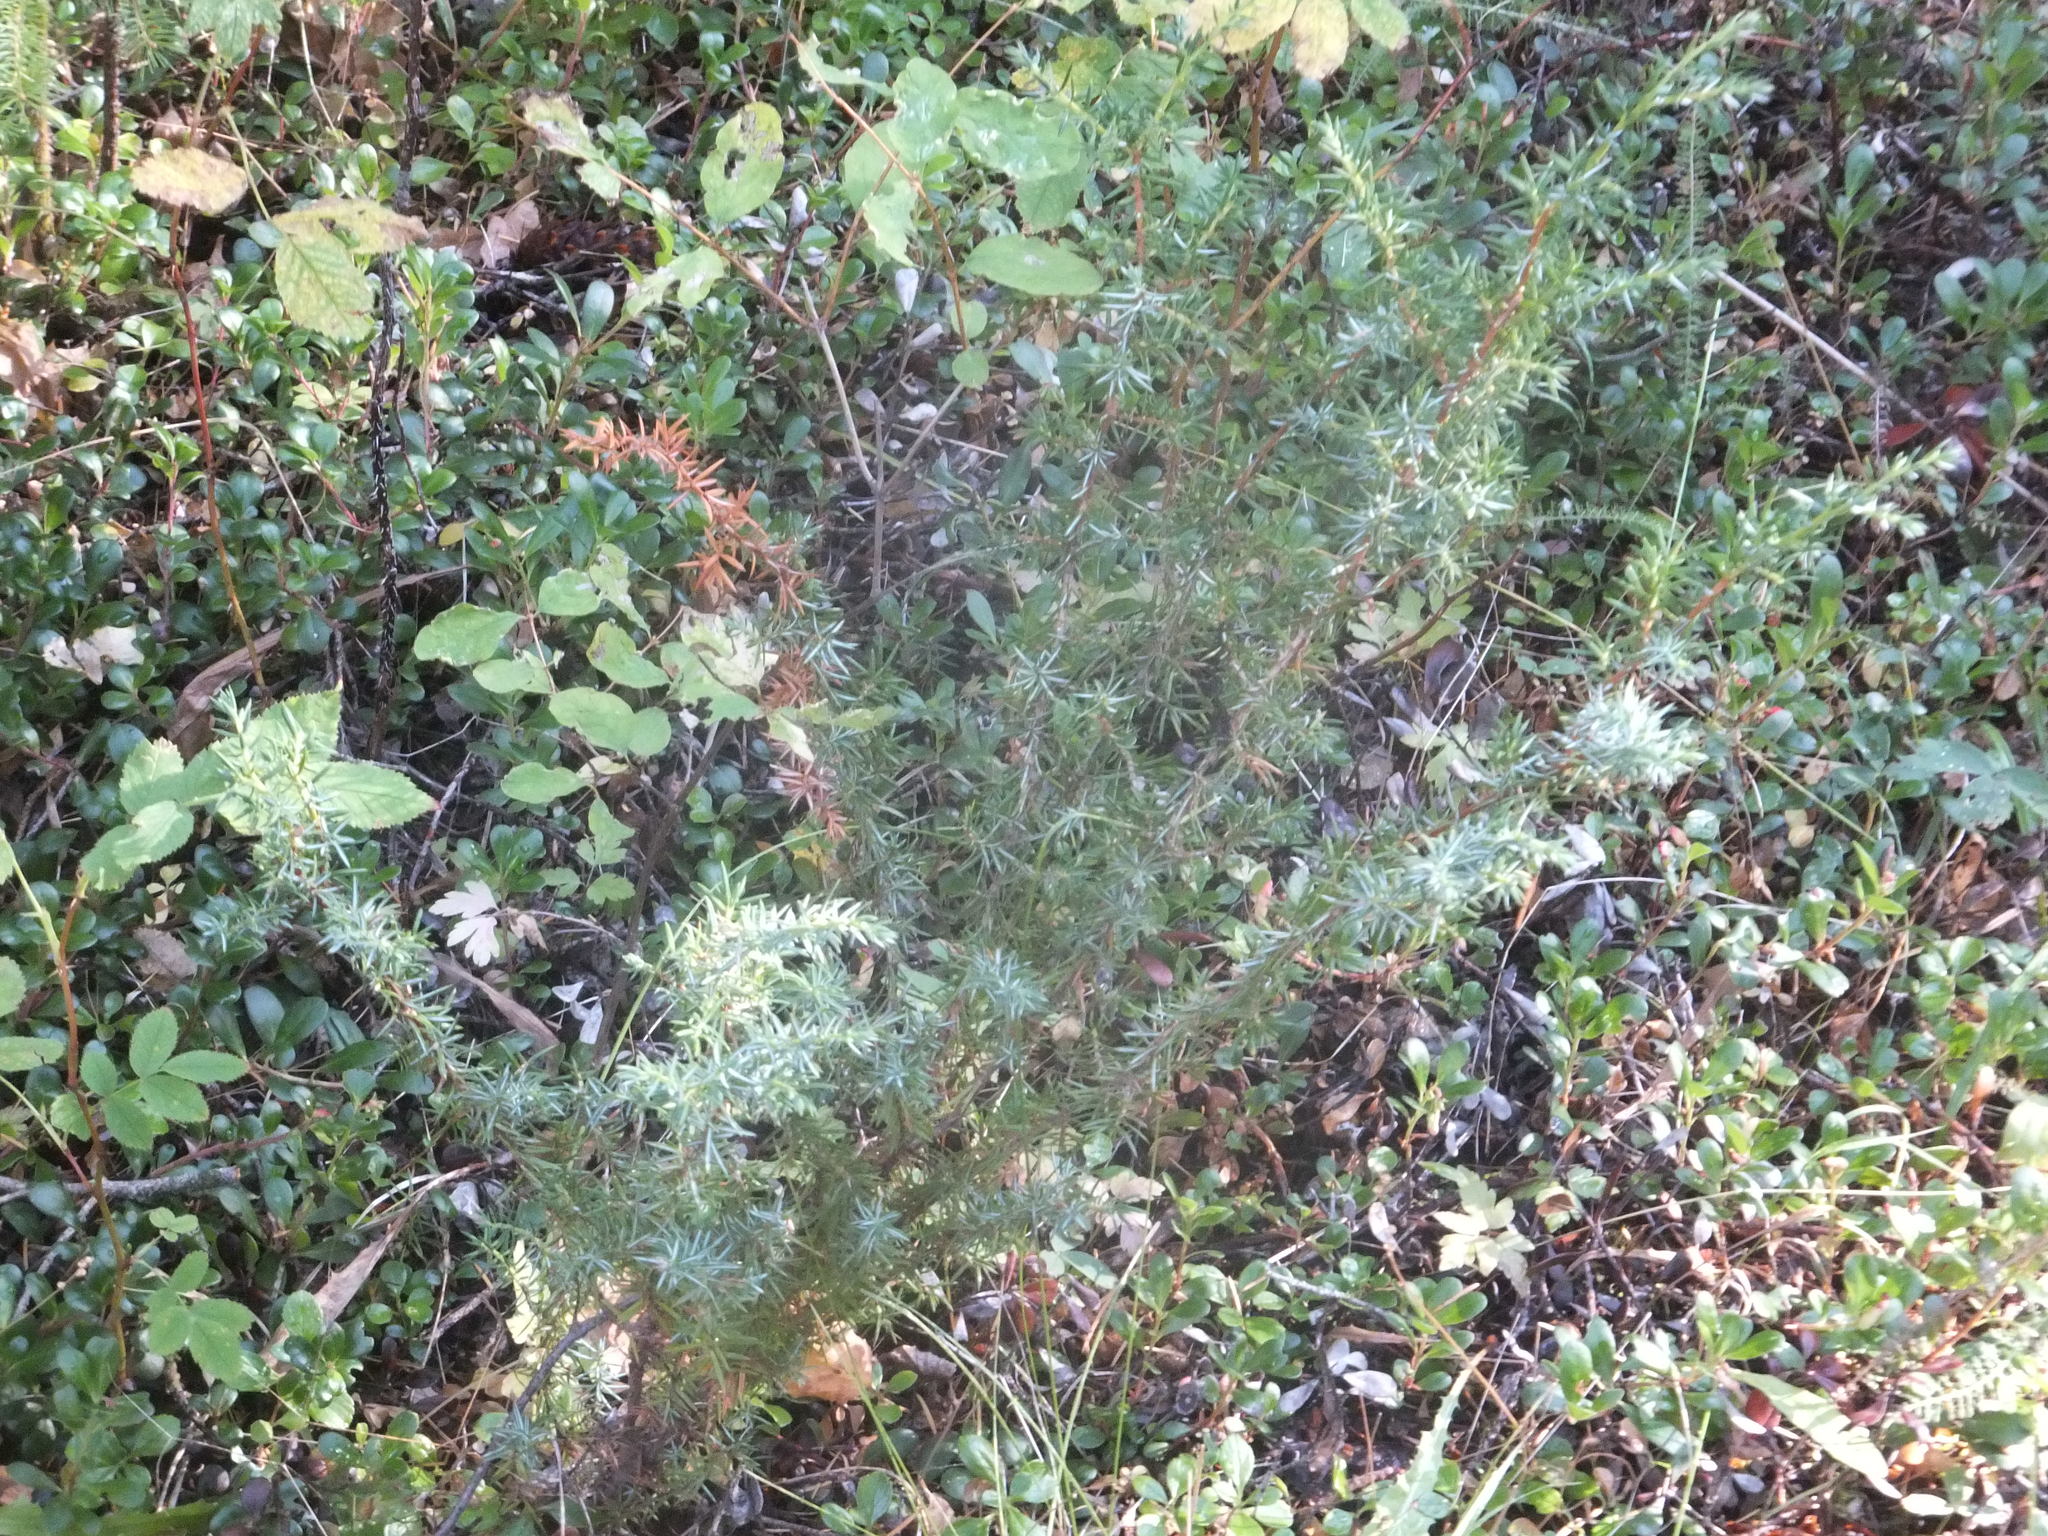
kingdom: Plantae
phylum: Tracheophyta
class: Pinopsida
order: Pinales
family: Cupressaceae
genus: Juniperus
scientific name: Juniperus communis
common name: Common juniper
